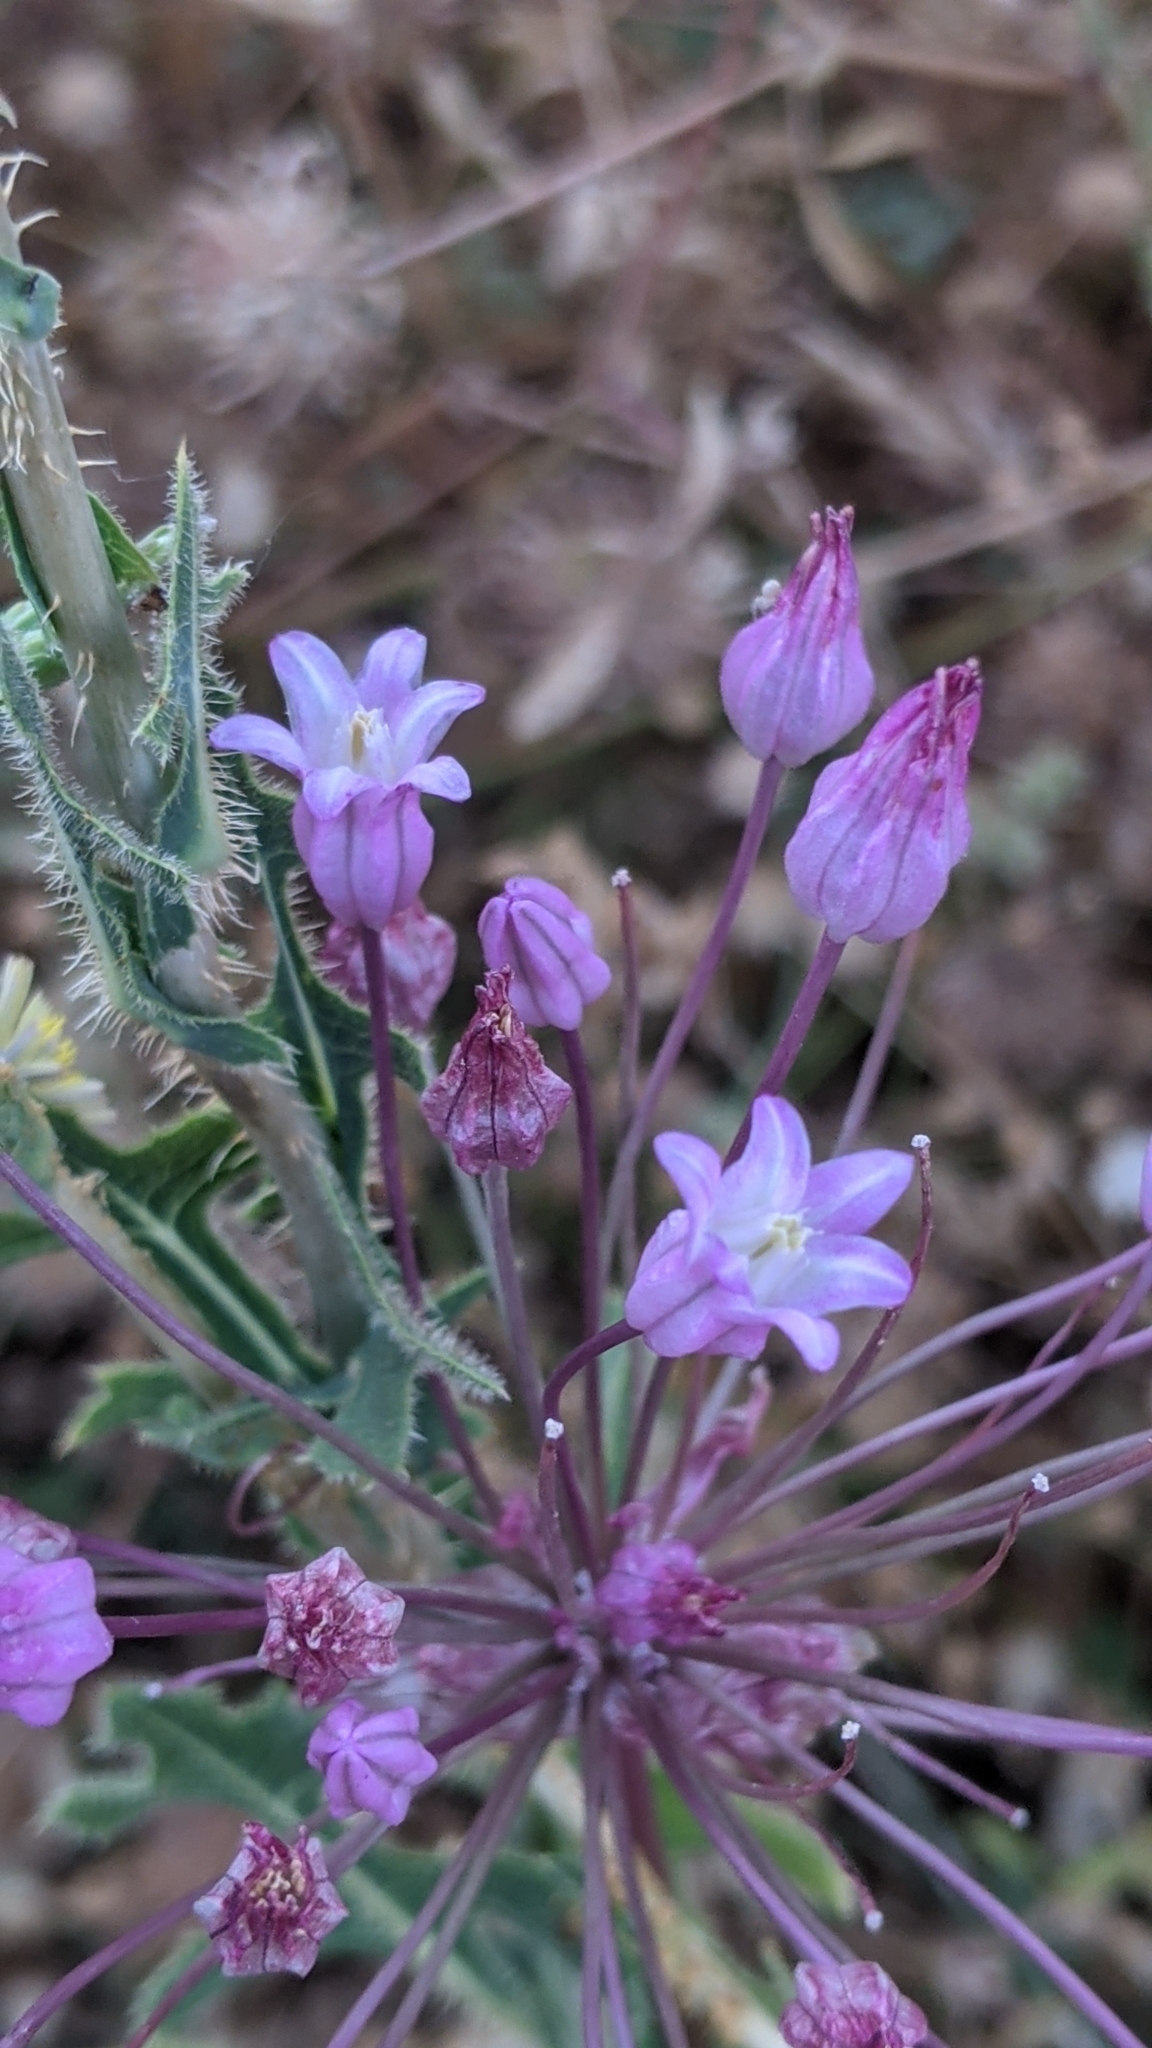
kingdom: Plantae
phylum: Tracheophyta
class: Liliopsida
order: Asparagales
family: Asparagaceae
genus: Dichelostemma
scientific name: Dichelostemma volubile
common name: Trining brodiaea
